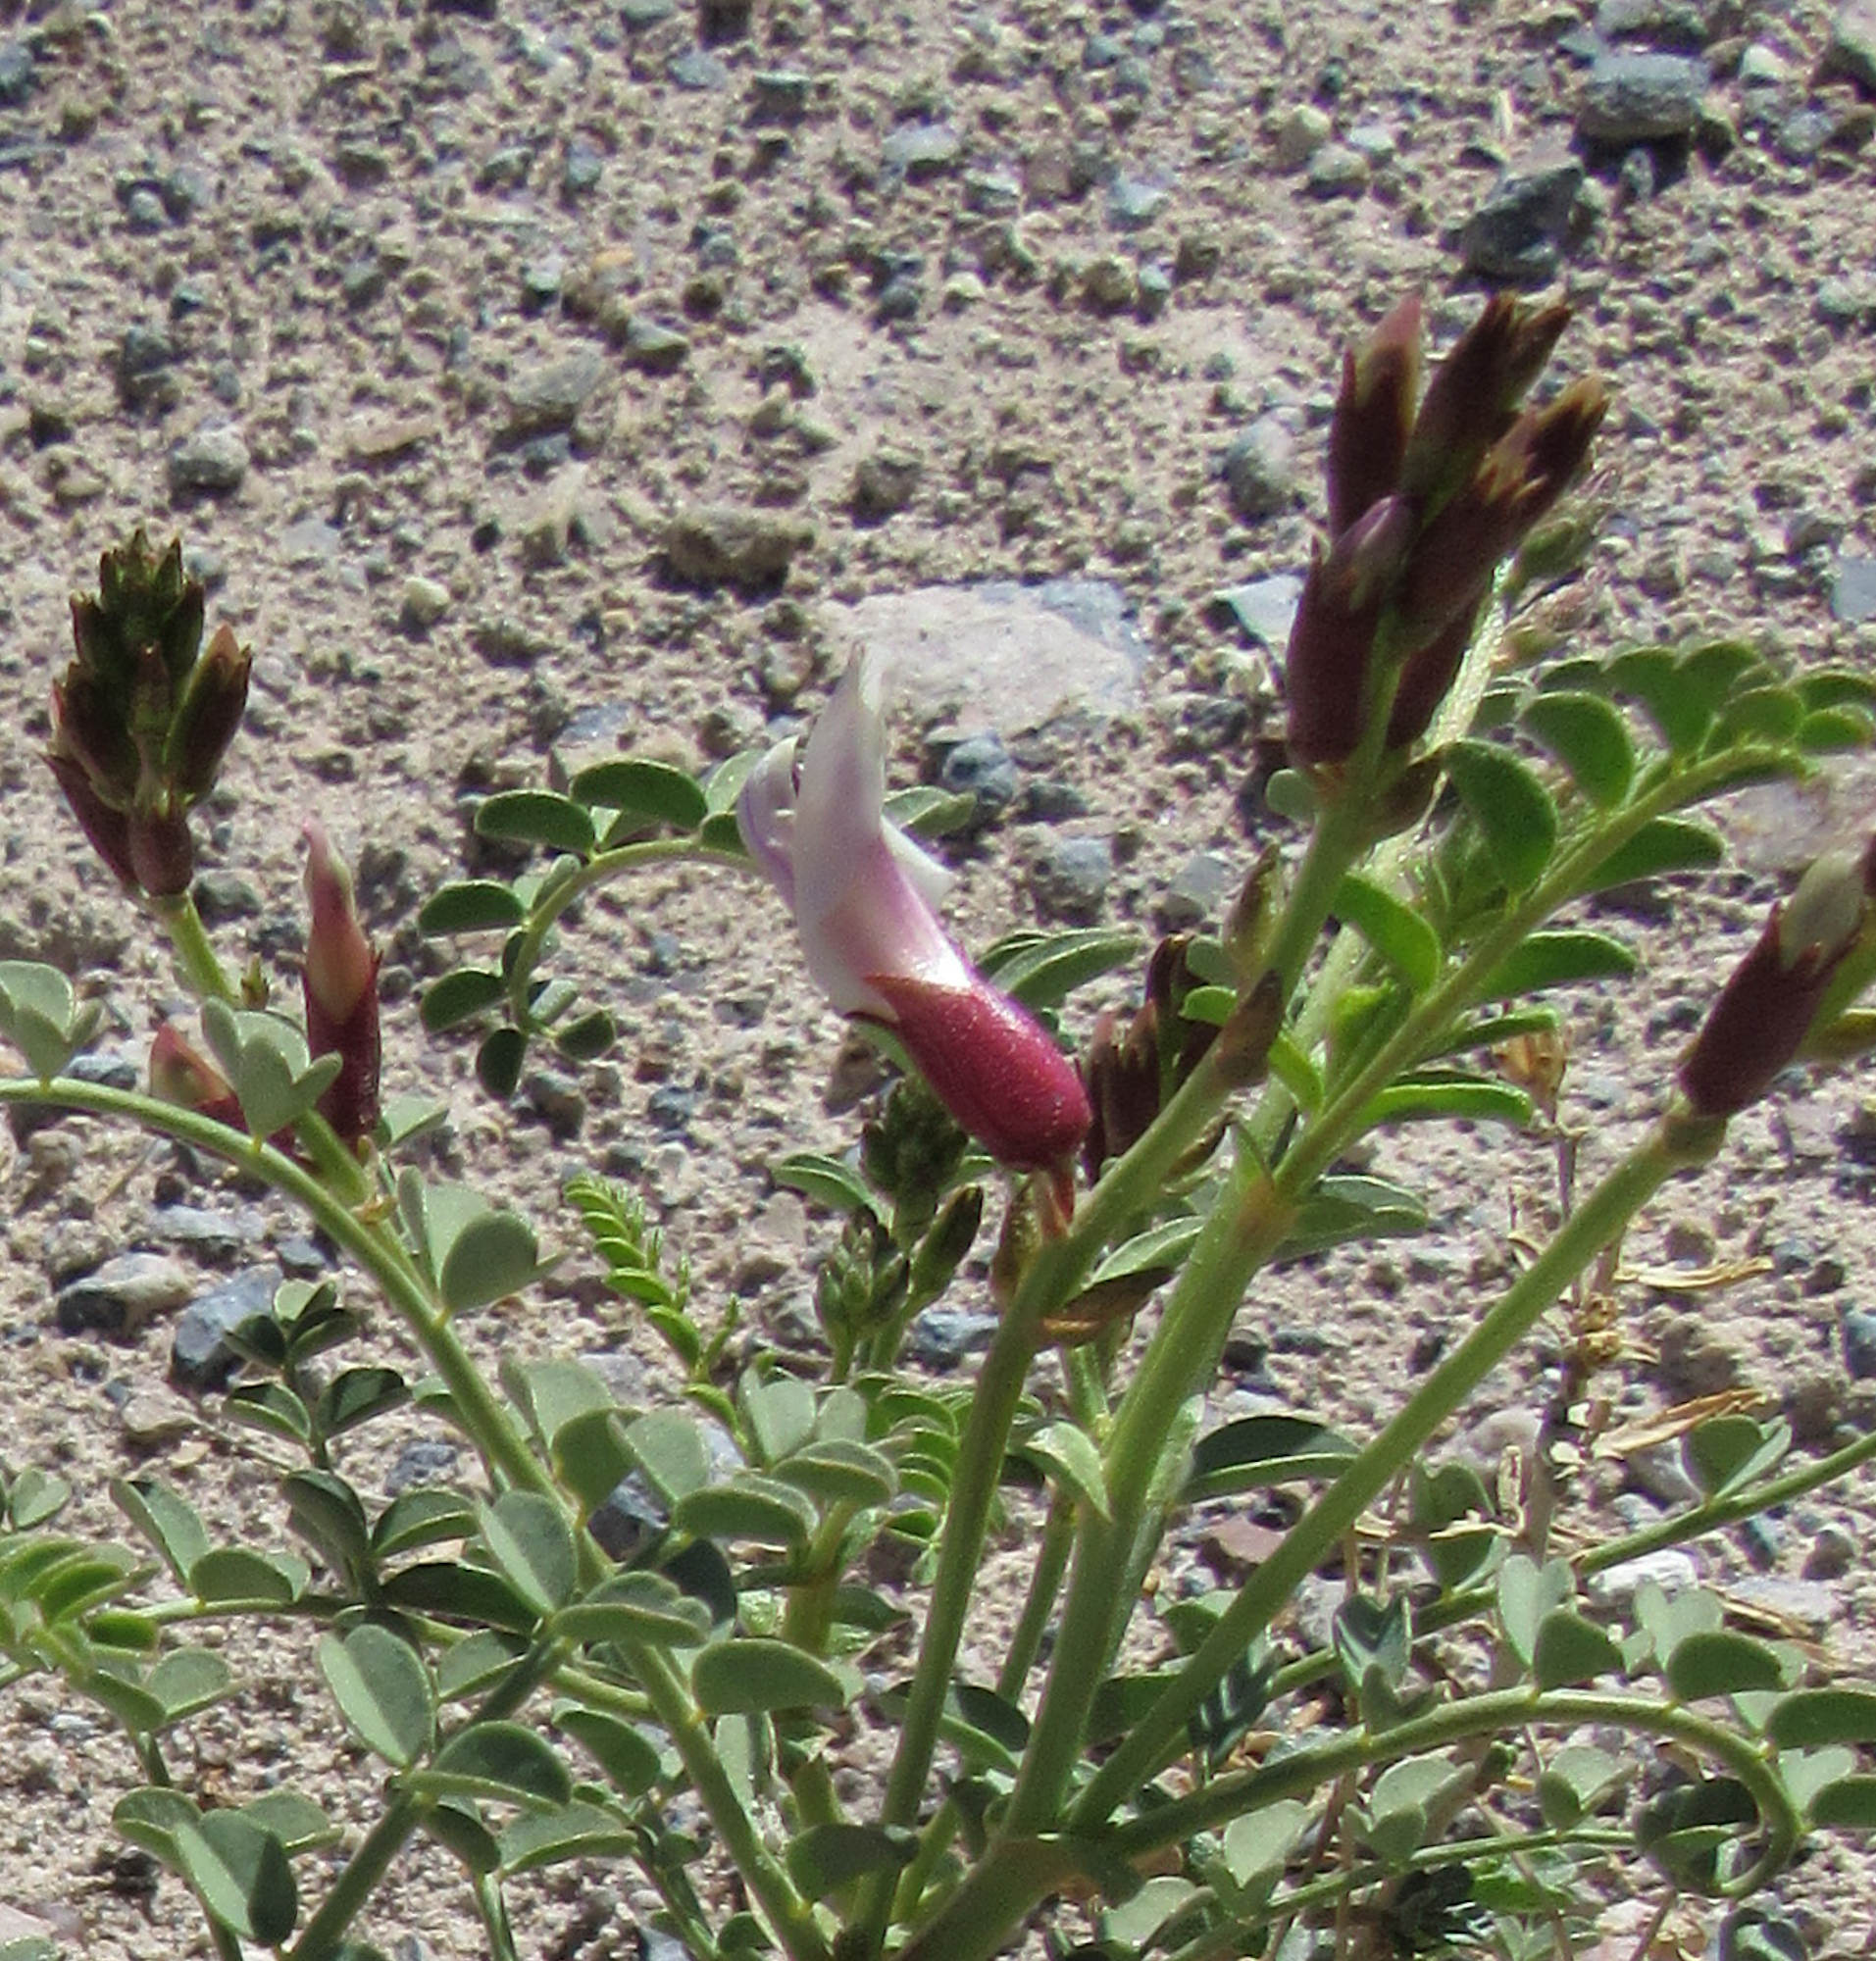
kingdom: Plantae
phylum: Tracheophyta
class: Magnoliopsida
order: Fabales
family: Fabaceae
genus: Astragalus
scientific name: Astragalus preussii
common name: Preuss's milk-vetch
